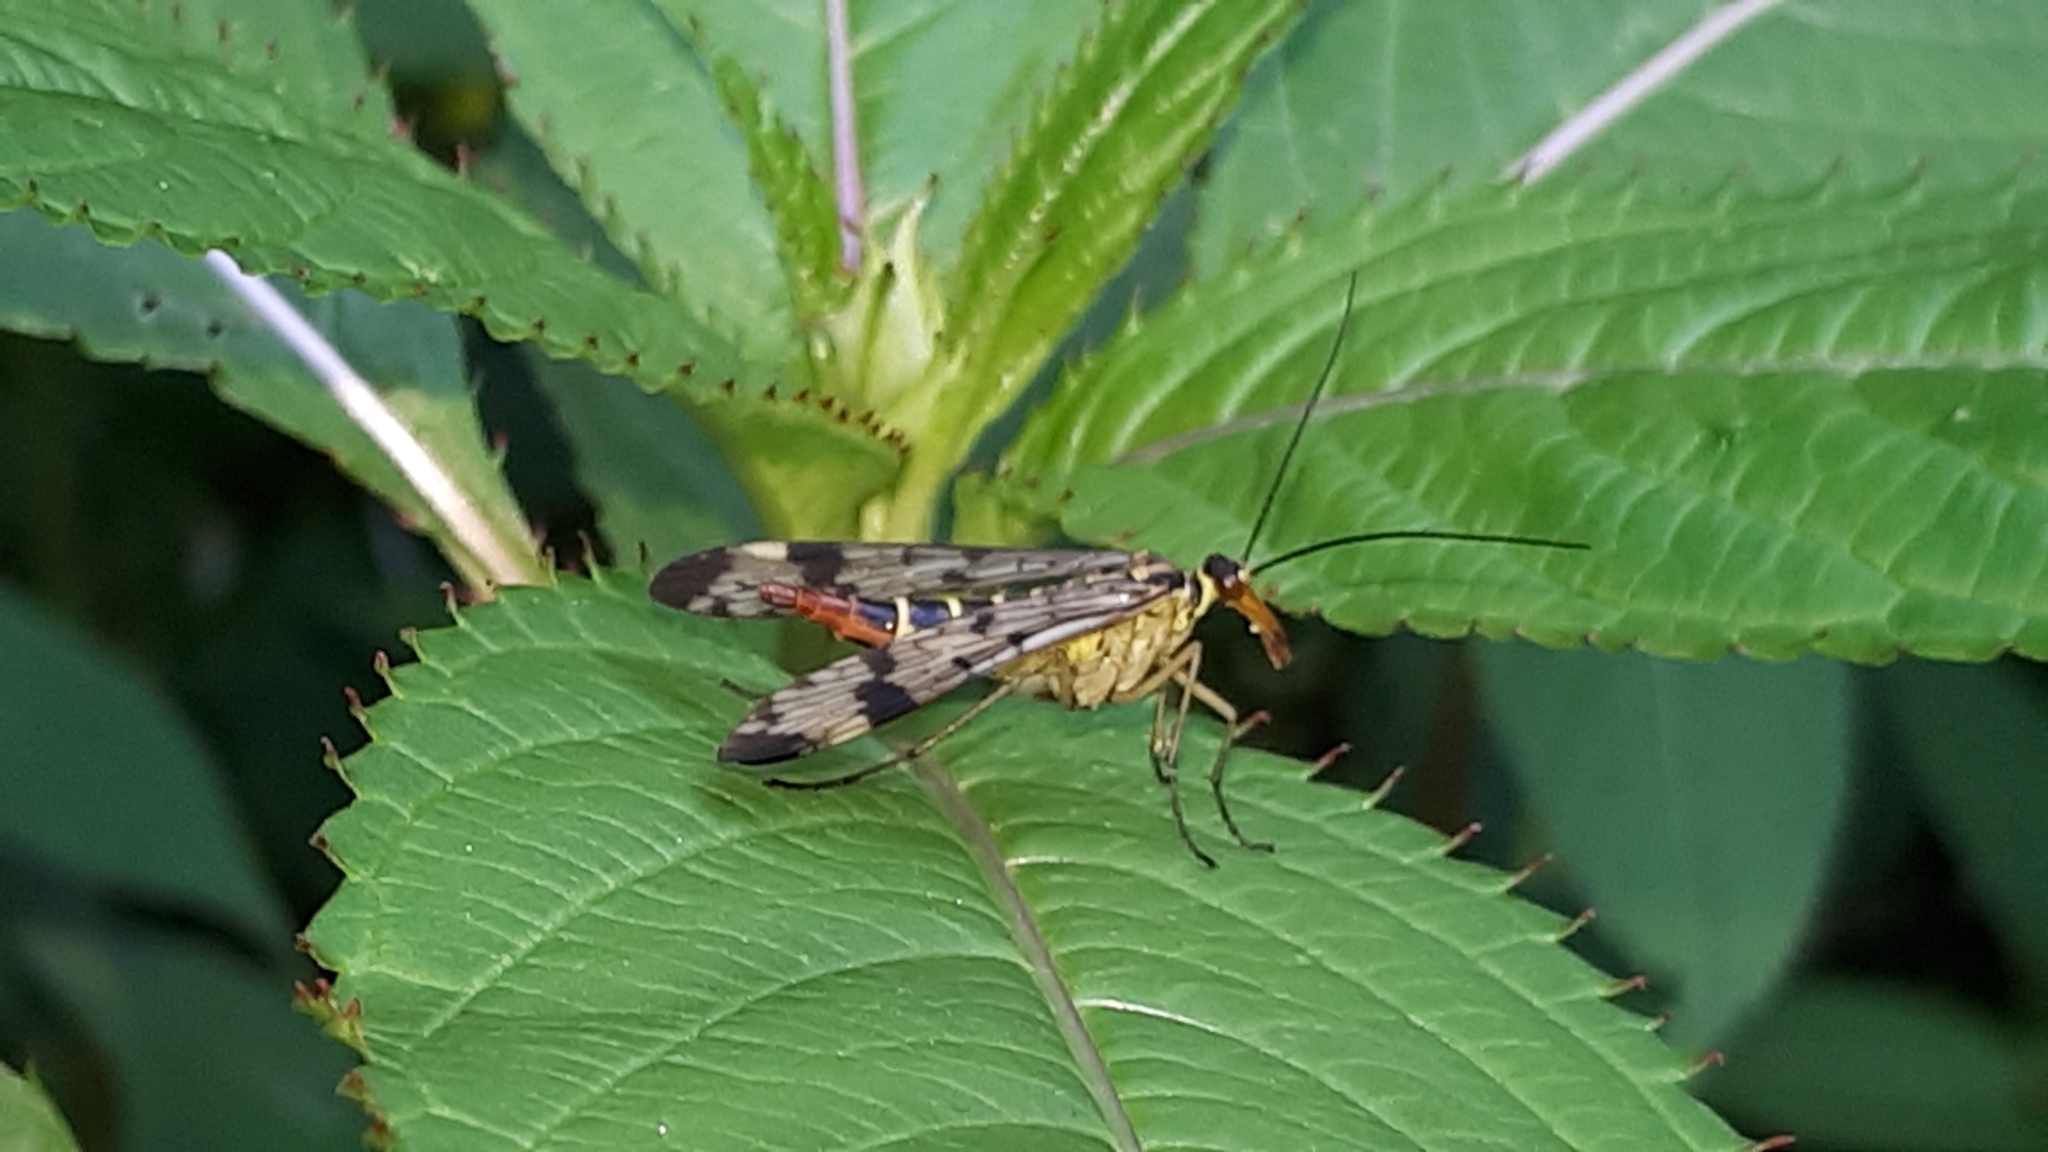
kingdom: Animalia
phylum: Arthropoda
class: Insecta
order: Mecoptera
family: Panorpidae
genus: Panorpa
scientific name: Panorpa communis
